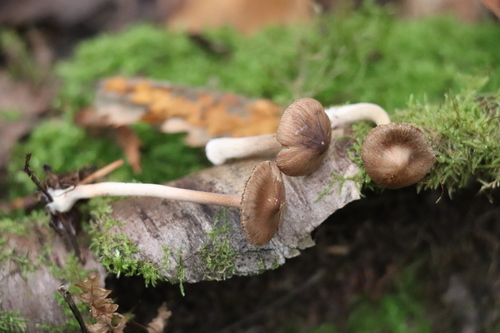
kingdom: Fungi
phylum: Basidiomycota
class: Agaricomycetes
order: Agaricales
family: Inocybaceae
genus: Inocybe
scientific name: Inocybe
